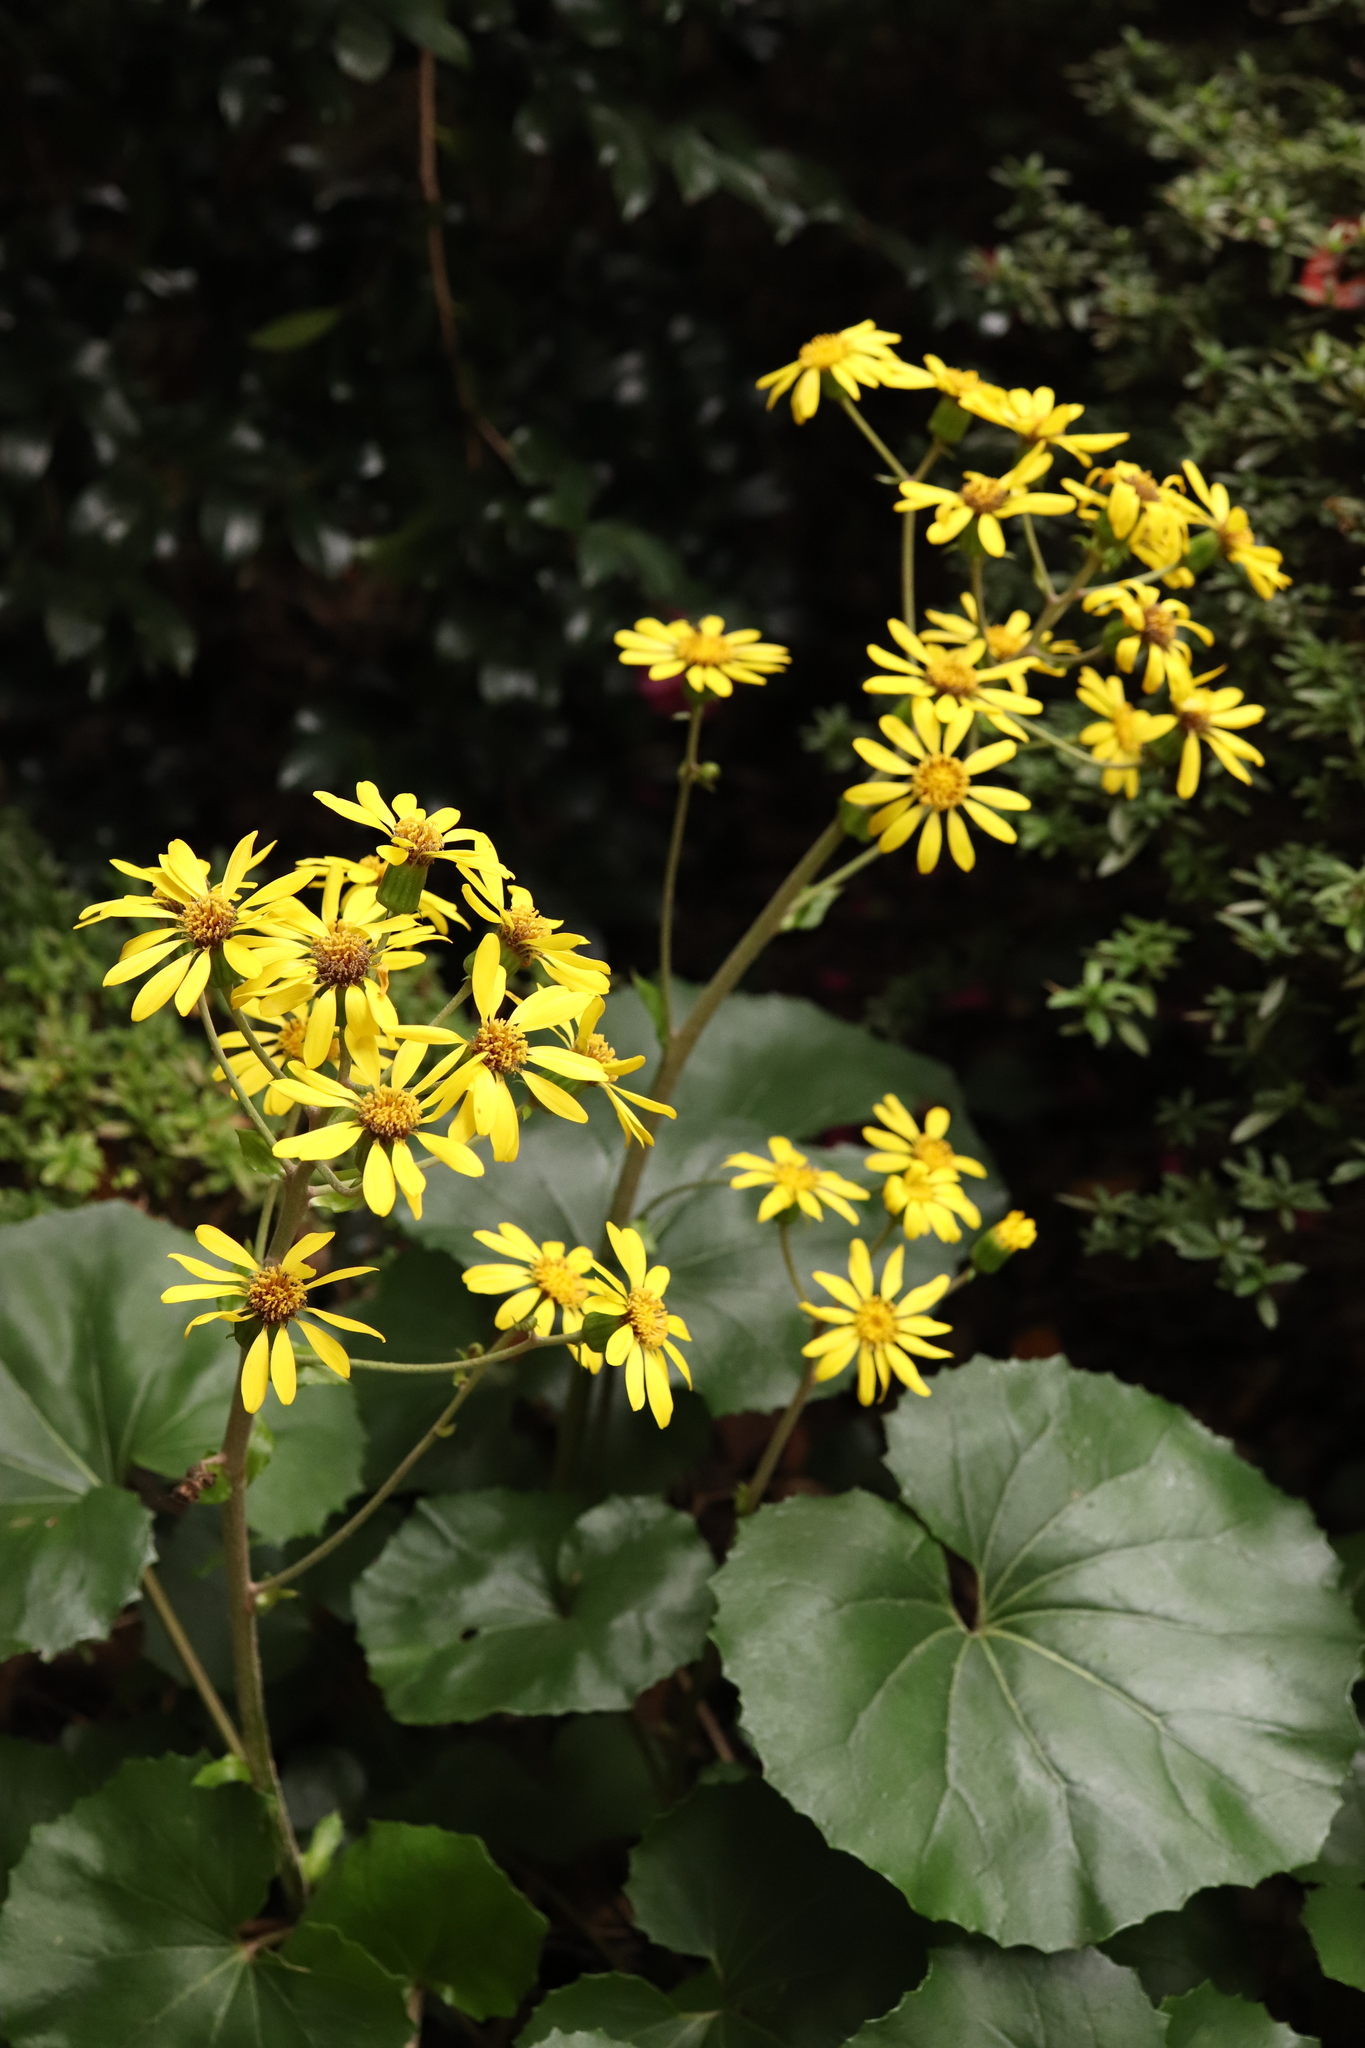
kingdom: Plantae
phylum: Tracheophyta
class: Magnoliopsida
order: Asterales
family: Asteraceae
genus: Farfugium
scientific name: Farfugium japonicum
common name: Leopardplant
